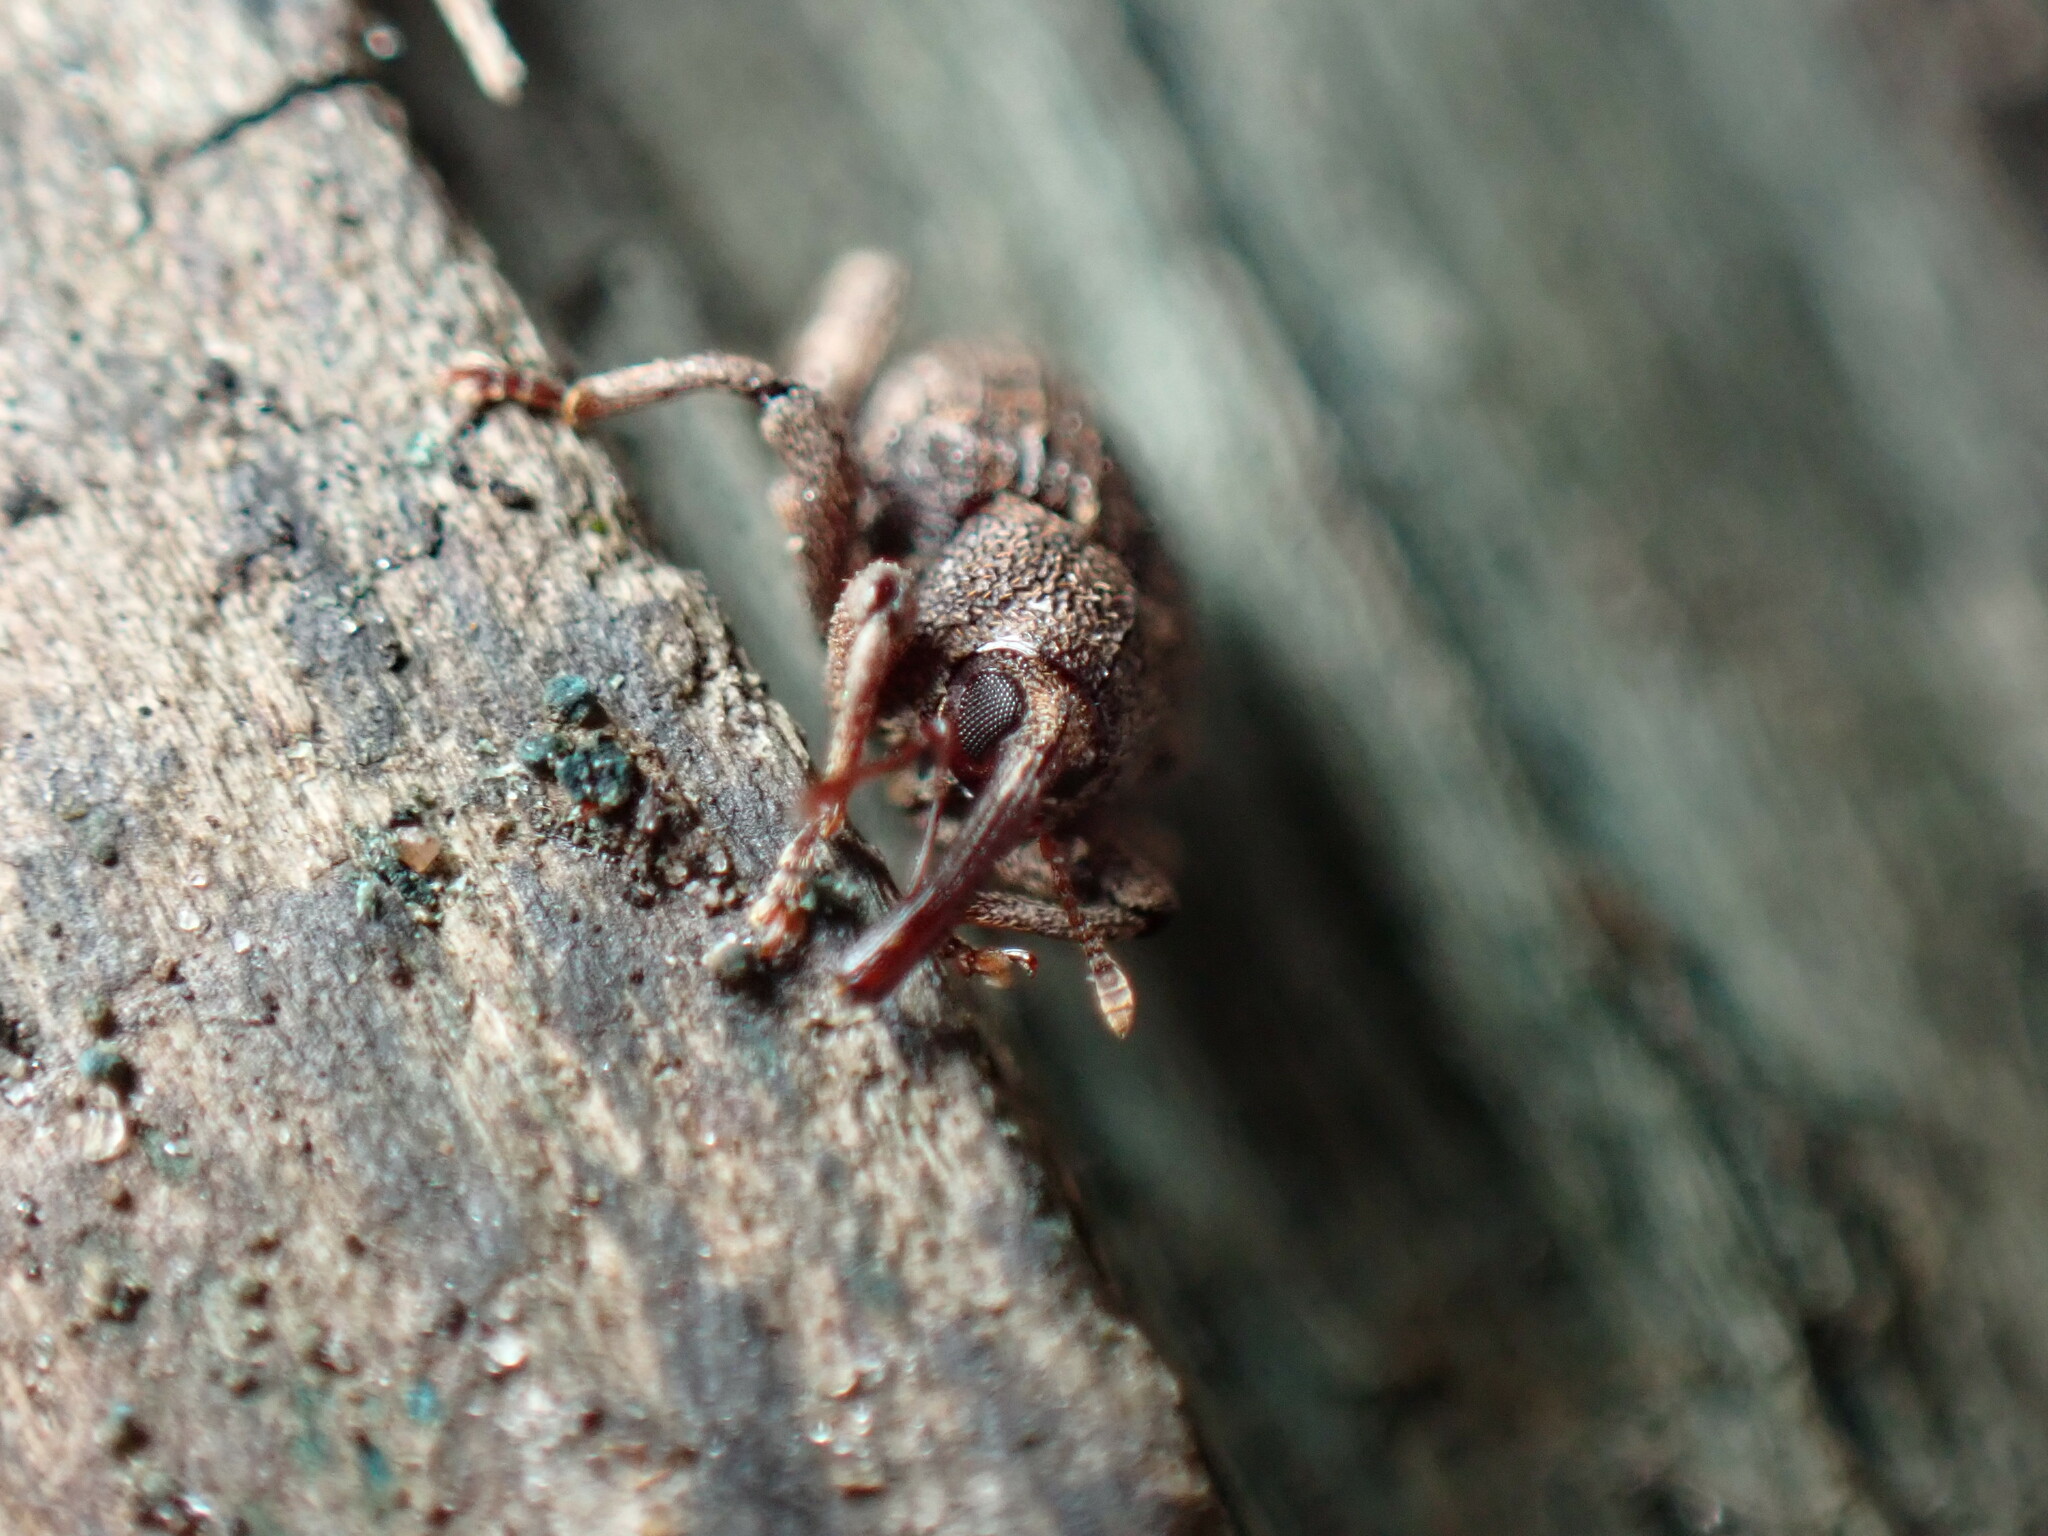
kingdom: Animalia
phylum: Arthropoda
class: Insecta
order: Coleoptera
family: Curculionidae
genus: Conotrachelus
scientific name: Conotrachelus posticatus
